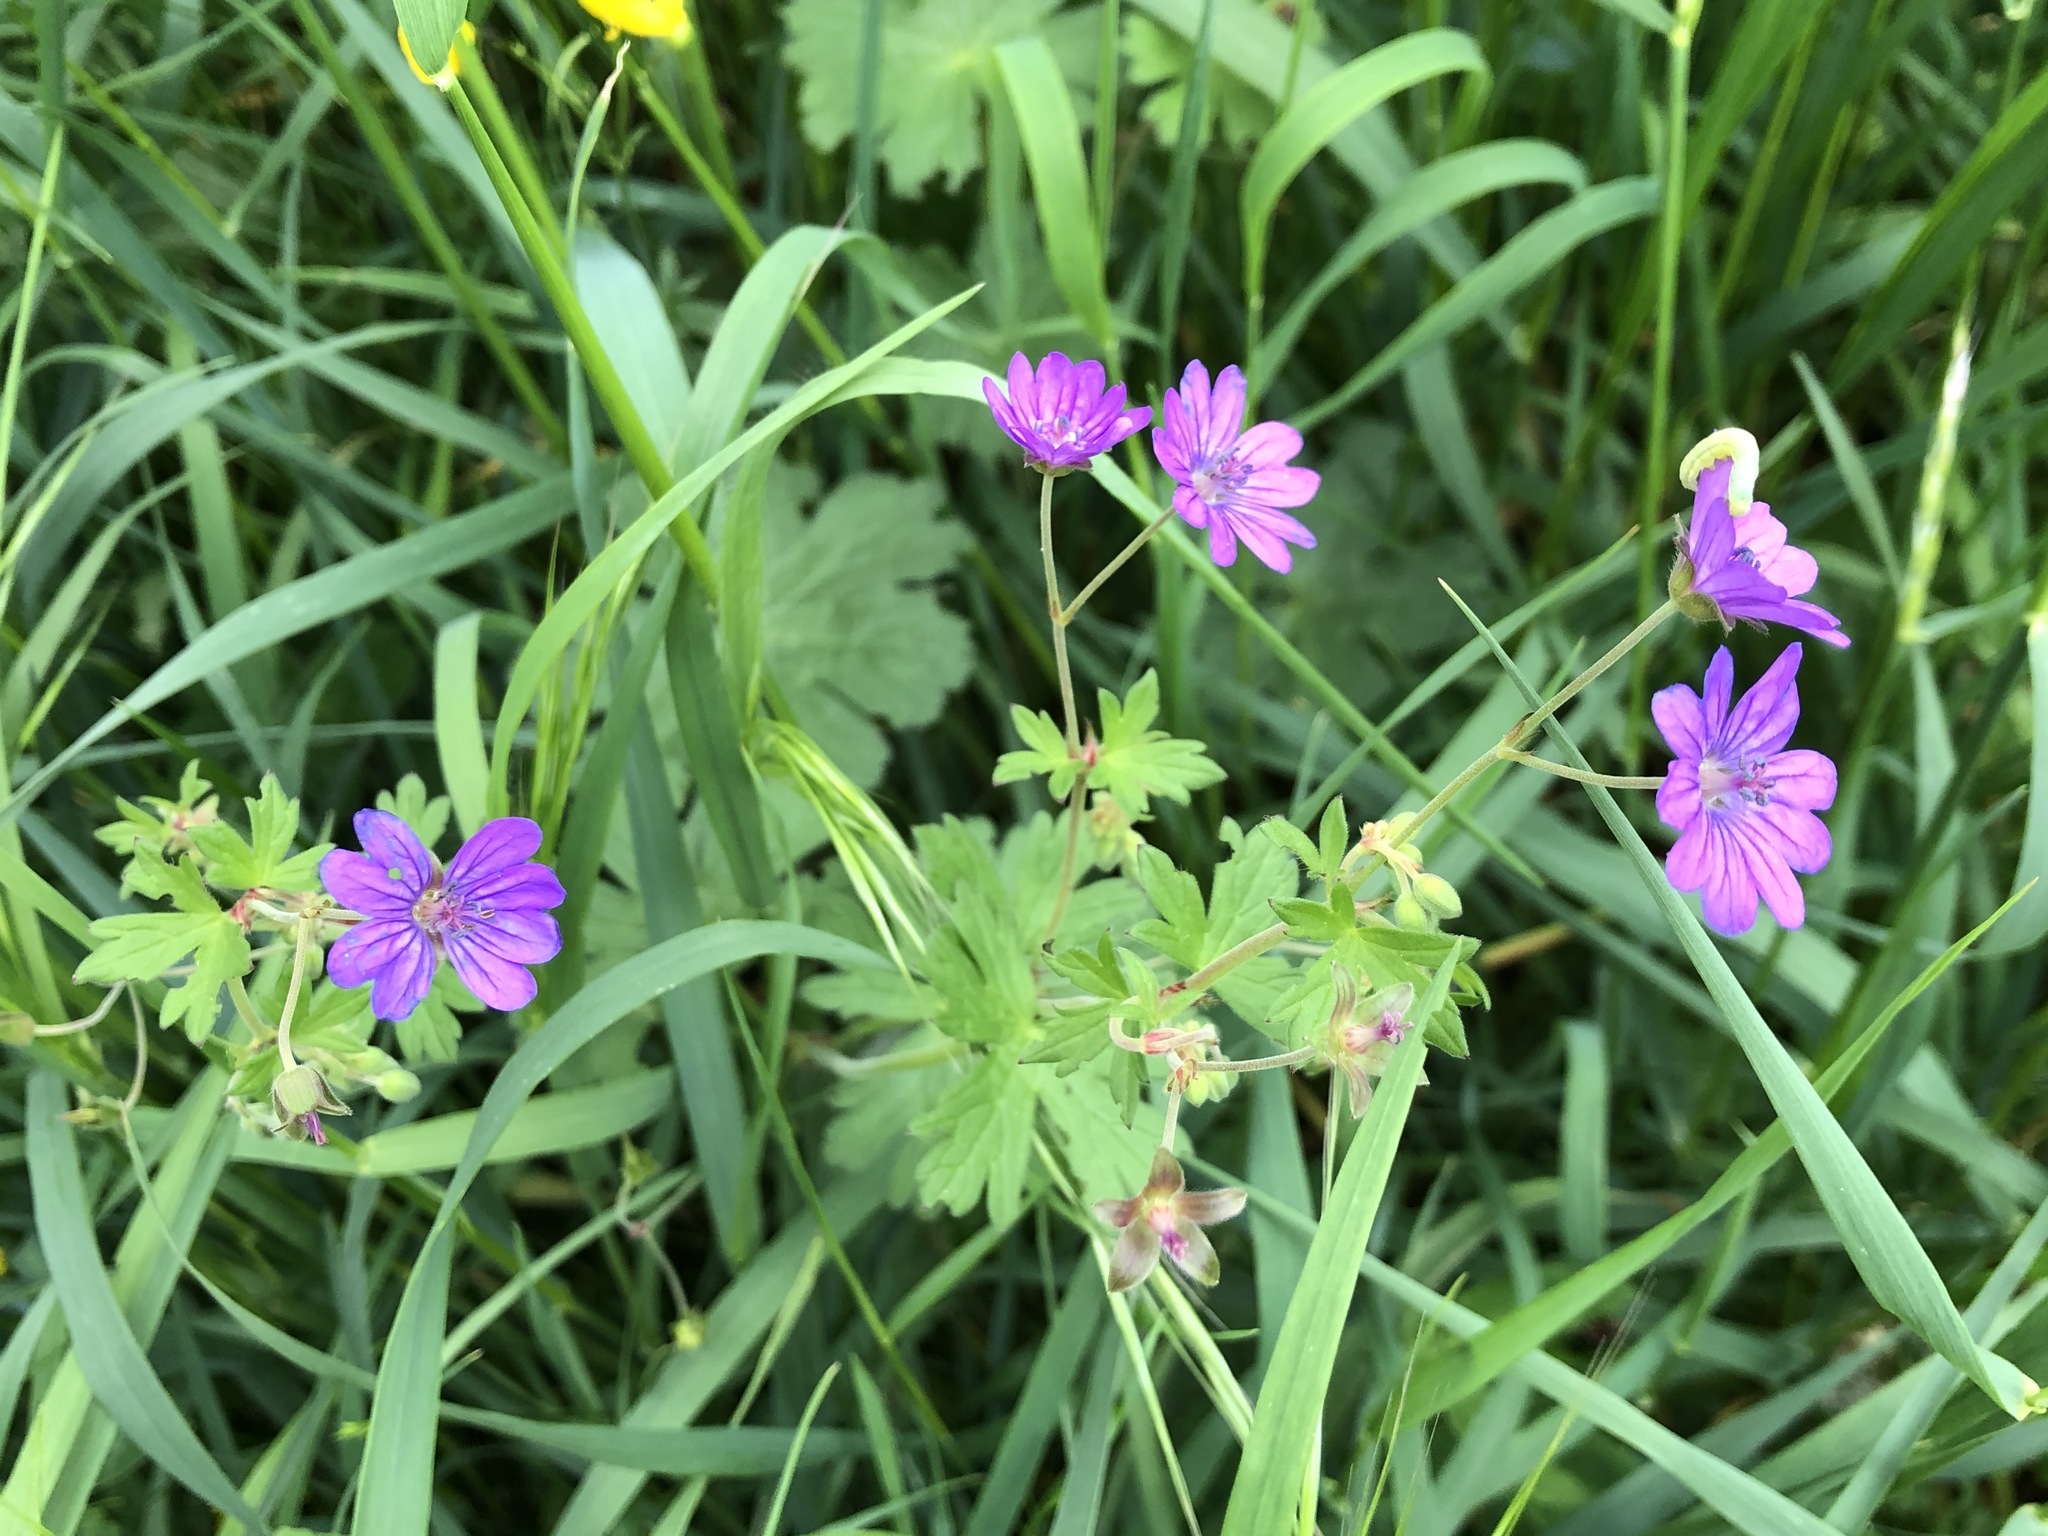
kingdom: Plantae
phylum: Tracheophyta
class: Magnoliopsida
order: Geraniales
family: Geraniaceae
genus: Geranium
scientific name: Geranium pyrenaicum
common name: Hedgerow crane's-bill
